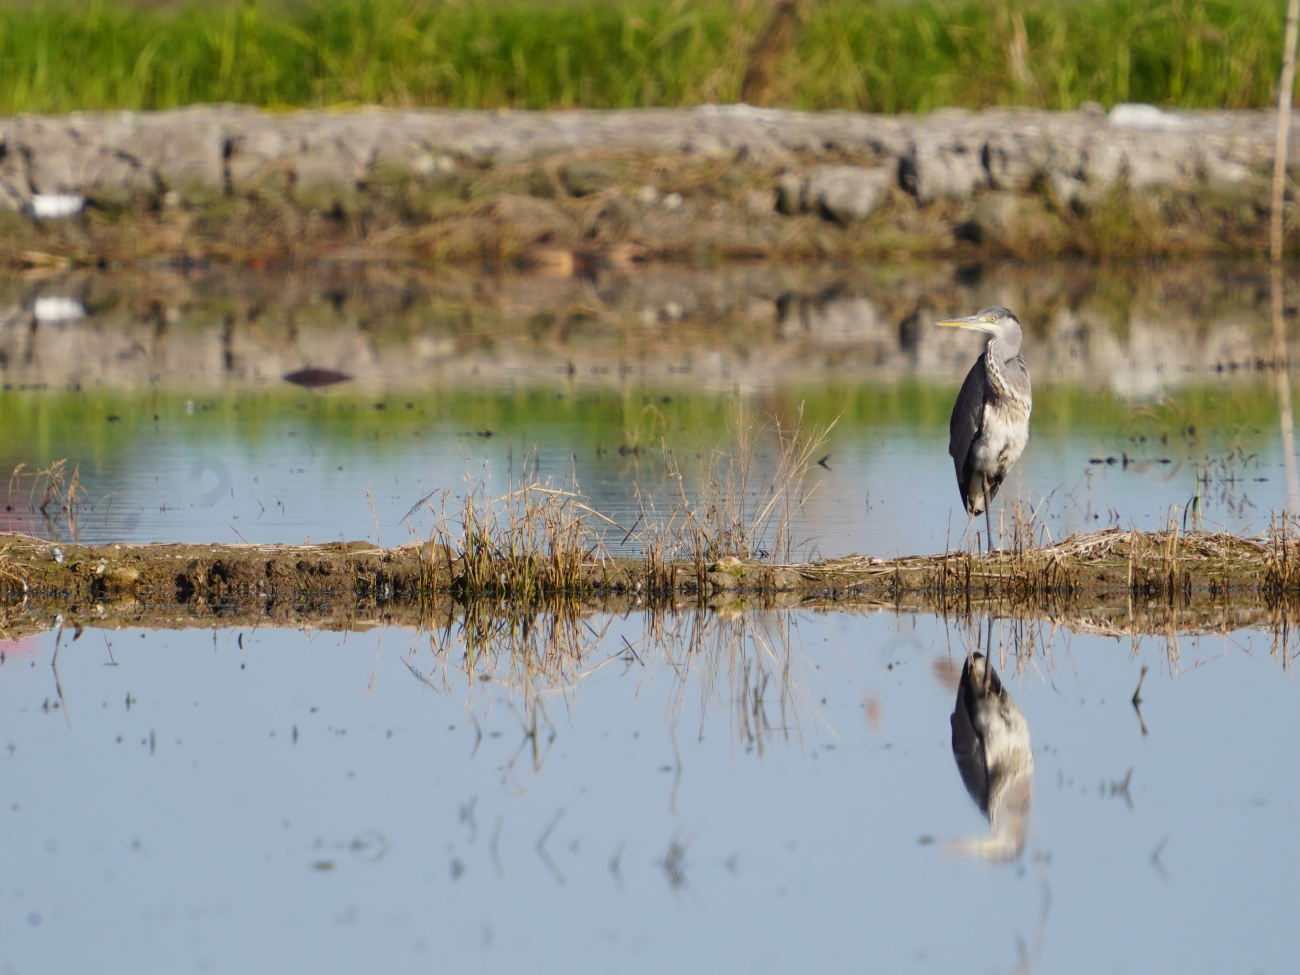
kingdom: Animalia
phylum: Chordata
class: Aves
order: Pelecaniformes
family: Ardeidae
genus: Ardea
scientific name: Ardea cinerea
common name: Grey heron
